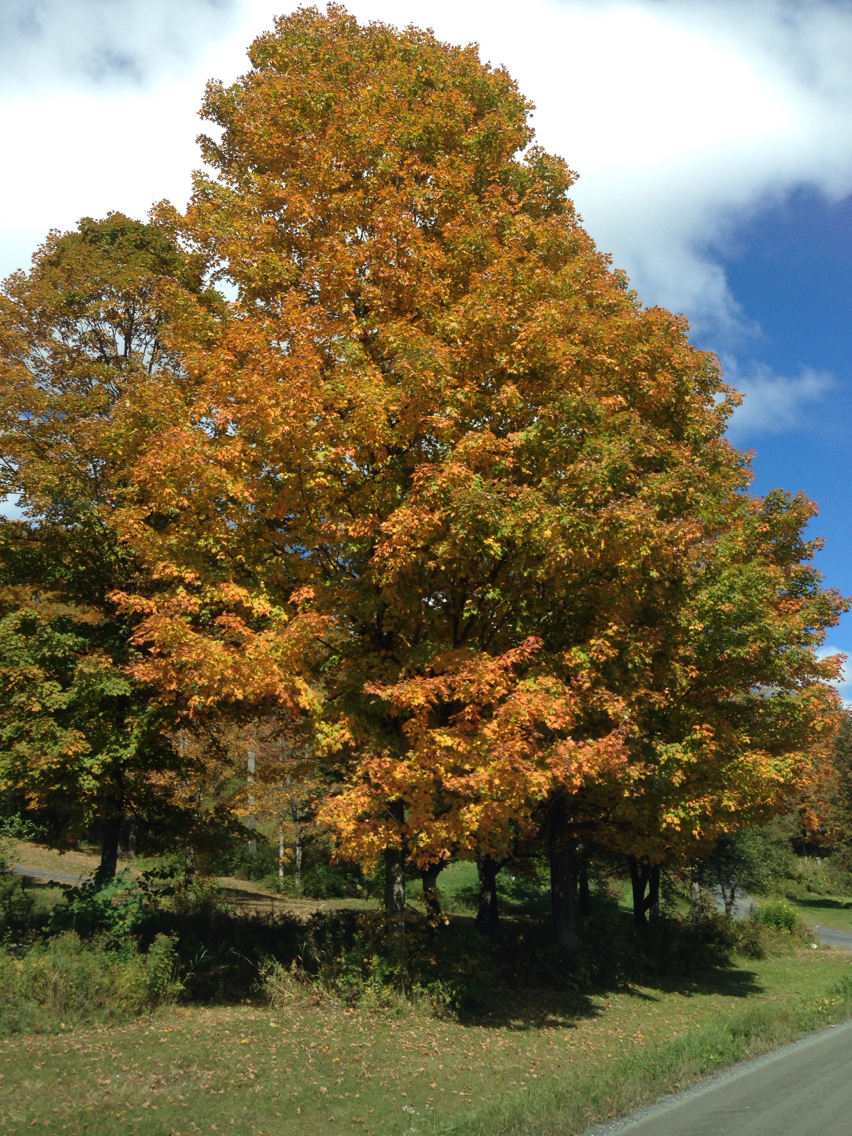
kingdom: Plantae
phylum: Tracheophyta
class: Magnoliopsida
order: Sapindales
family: Sapindaceae
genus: Acer
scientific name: Acer saccharum
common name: Sugar maple
